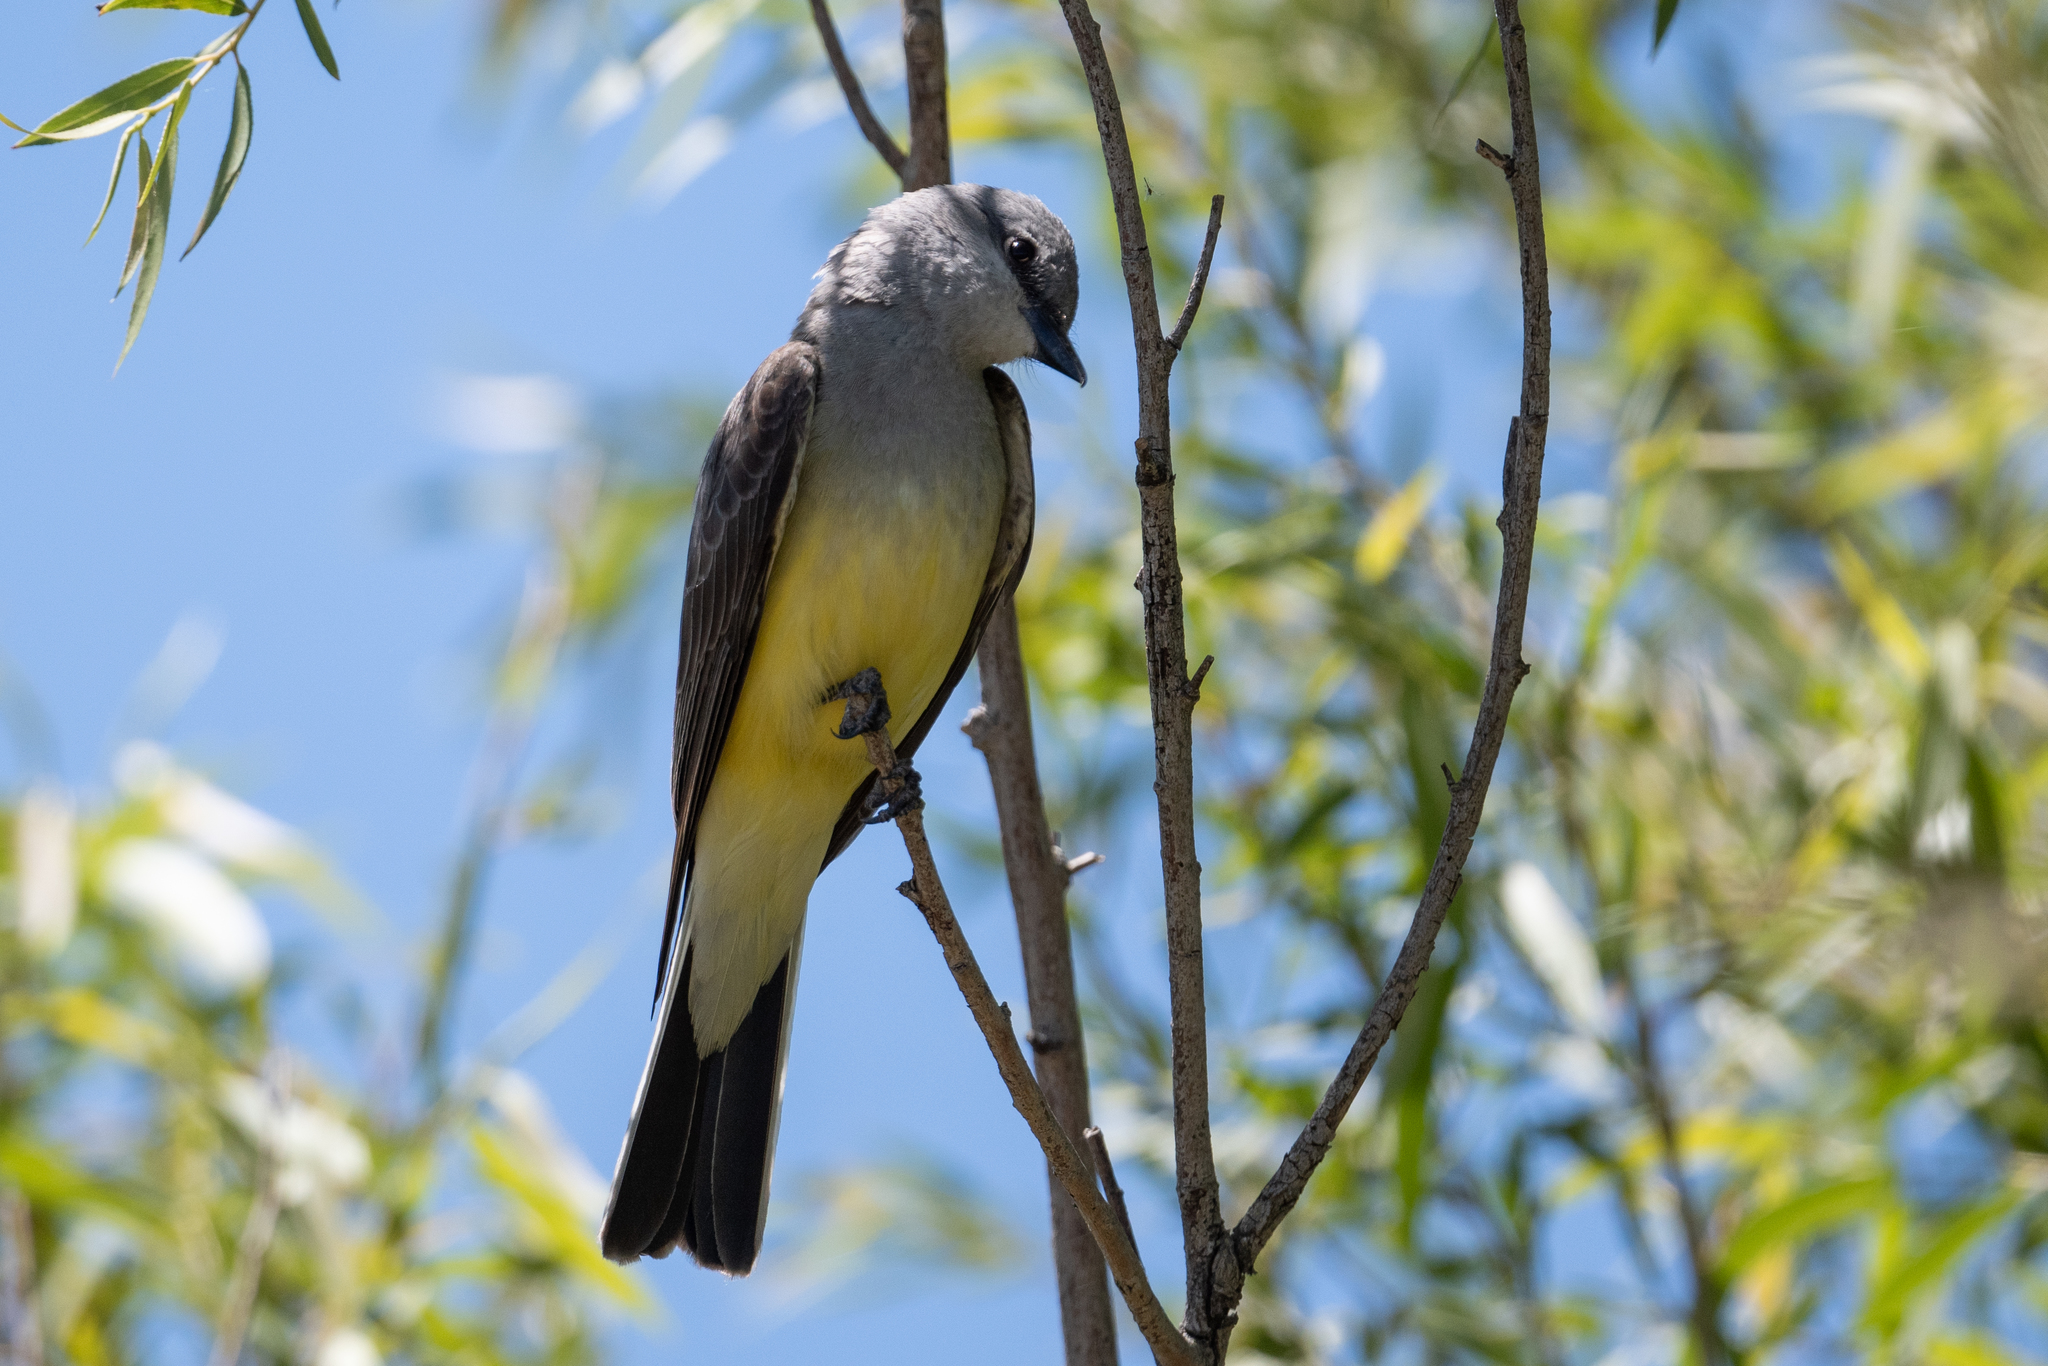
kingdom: Animalia
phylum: Chordata
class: Aves
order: Passeriformes
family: Tyrannidae
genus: Tyrannus
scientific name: Tyrannus verticalis
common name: Western kingbird
